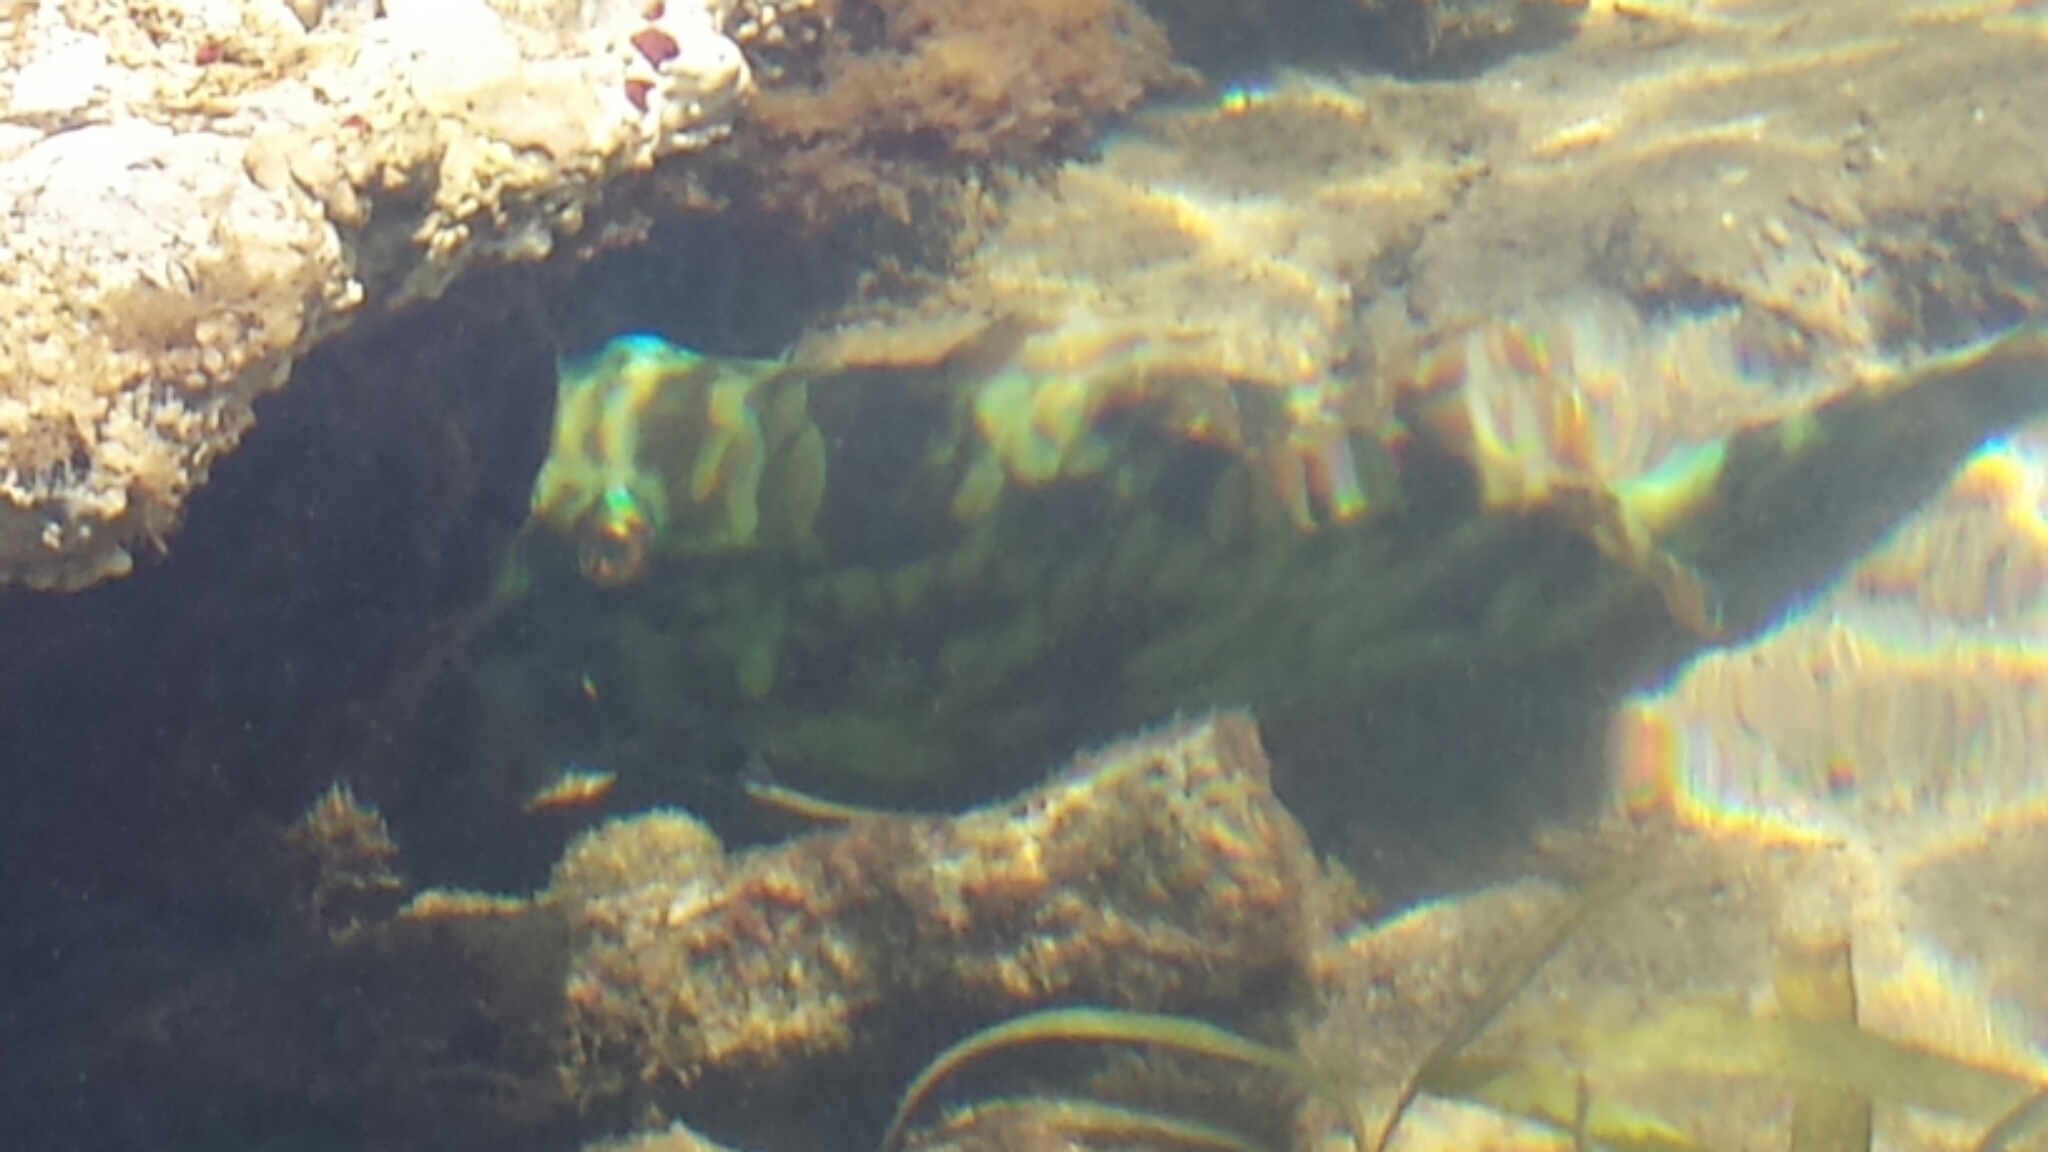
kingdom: Animalia
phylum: Chordata
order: Perciformes
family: Scaridae
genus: Sparisoma
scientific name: Sparisoma rubripinne
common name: Redfin parrotfish
